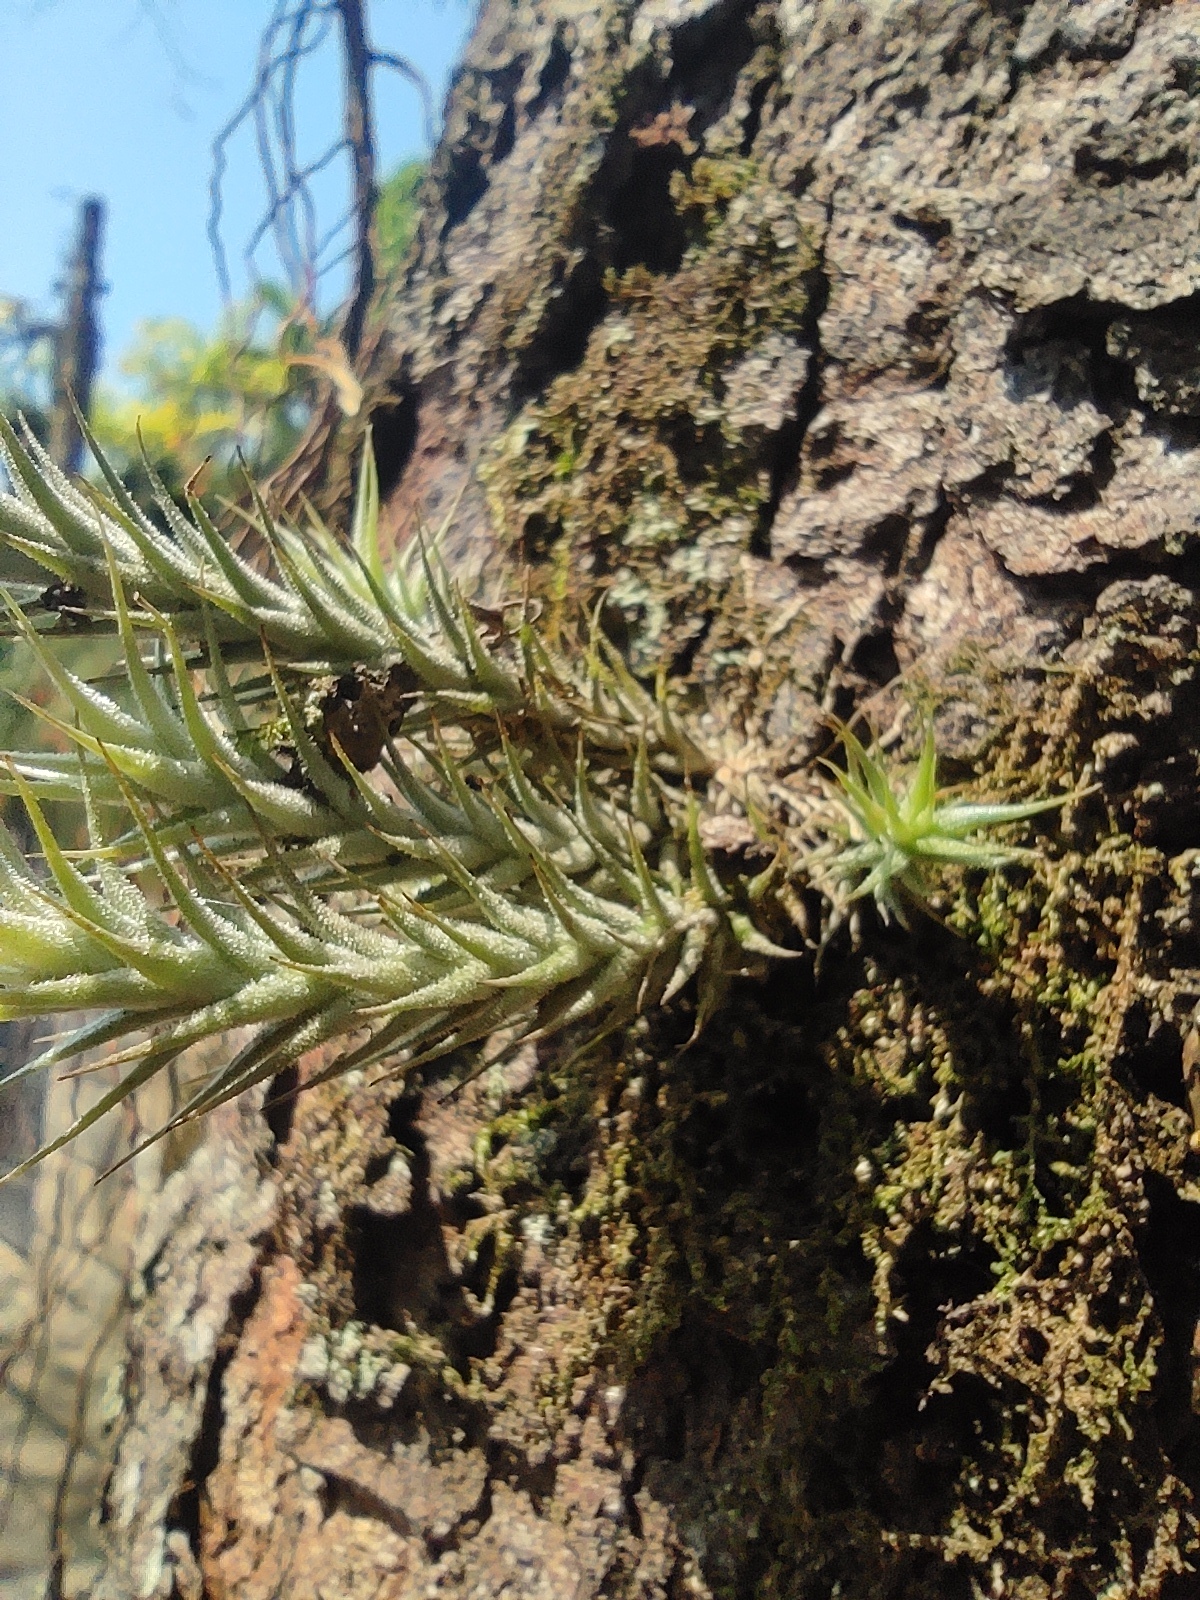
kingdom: Plantae
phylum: Tracheophyta
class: Liliopsida
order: Poales
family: Bromeliaceae
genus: Tillandsia
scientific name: Tillandsia tricholepis
